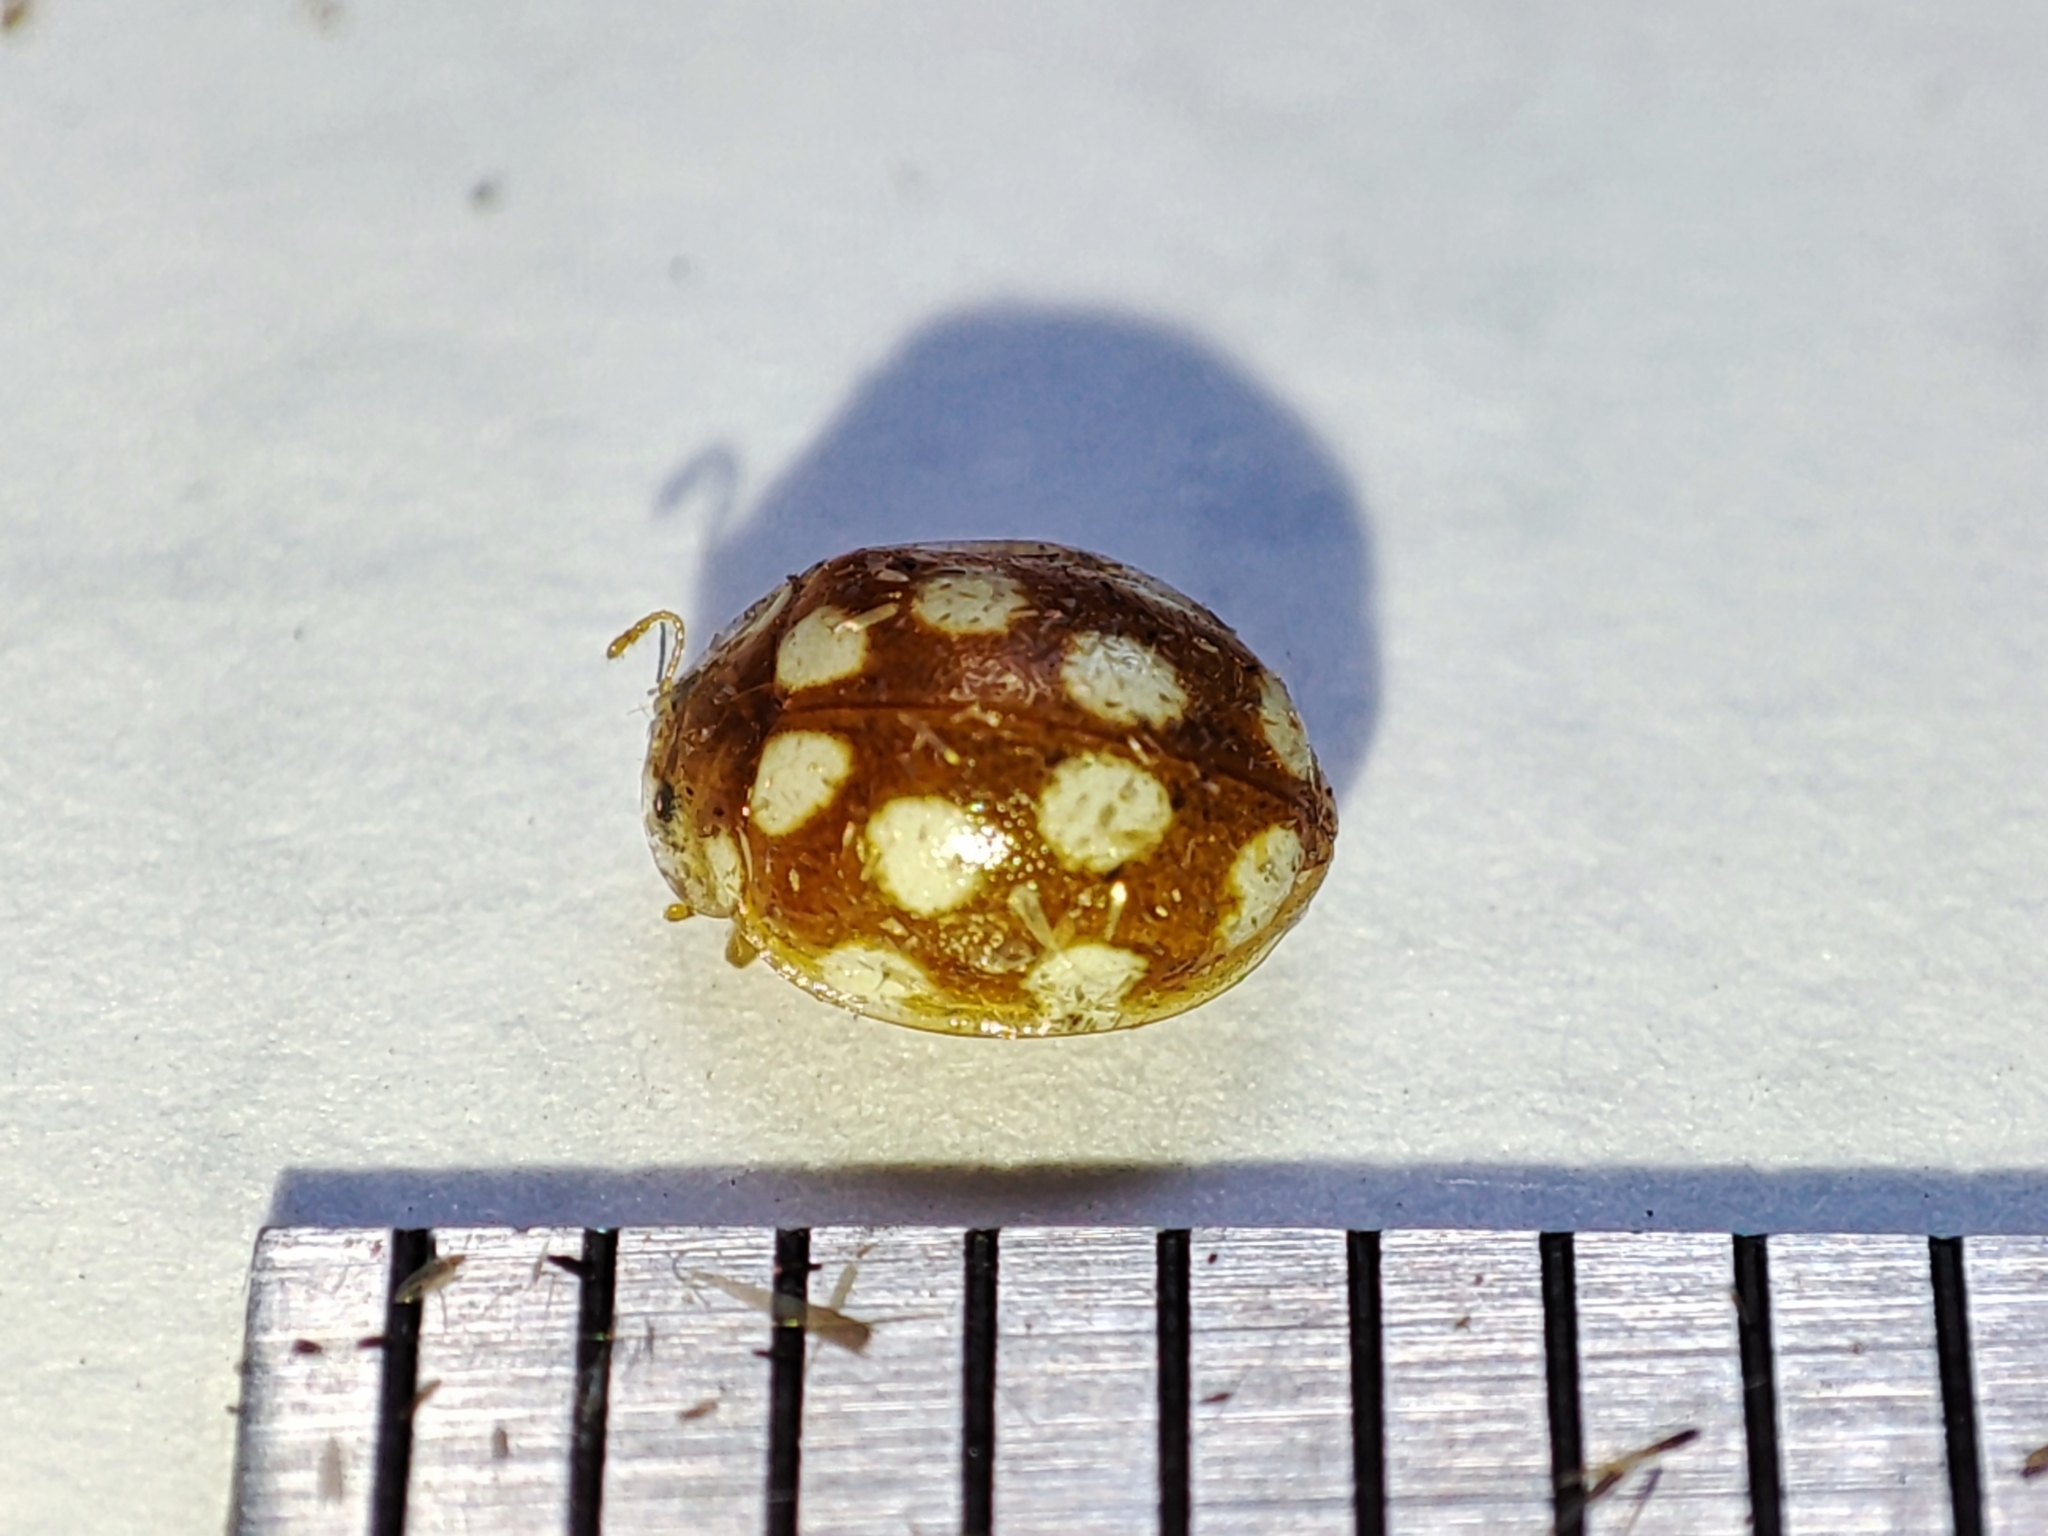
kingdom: Animalia
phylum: Arthropoda
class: Insecta
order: Coleoptera
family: Coccinellidae
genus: Vibidia
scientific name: Vibidia duodecimguttata
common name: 12-spot ladybird
